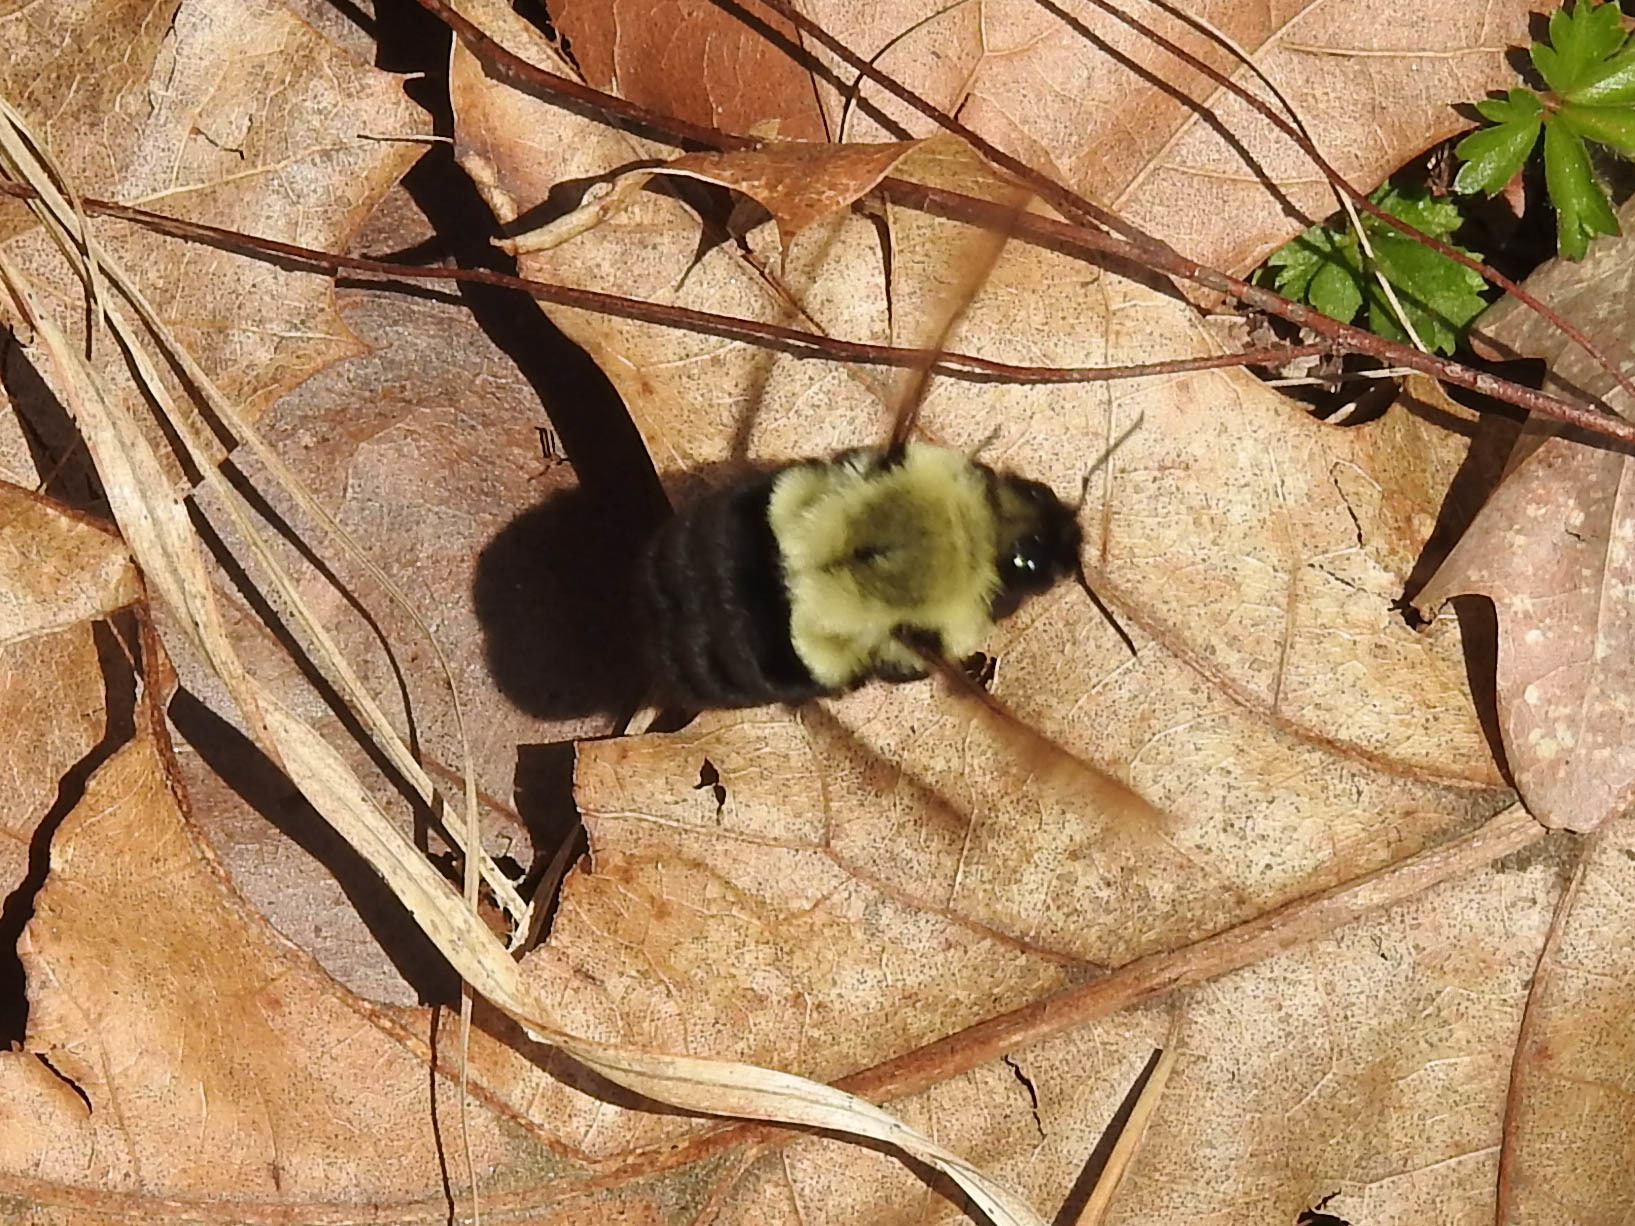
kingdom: Animalia
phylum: Arthropoda
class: Insecta
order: Hymenoptera
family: Apidae
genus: Bombus
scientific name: Bombus impatiens
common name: Common eastern bumble bee
